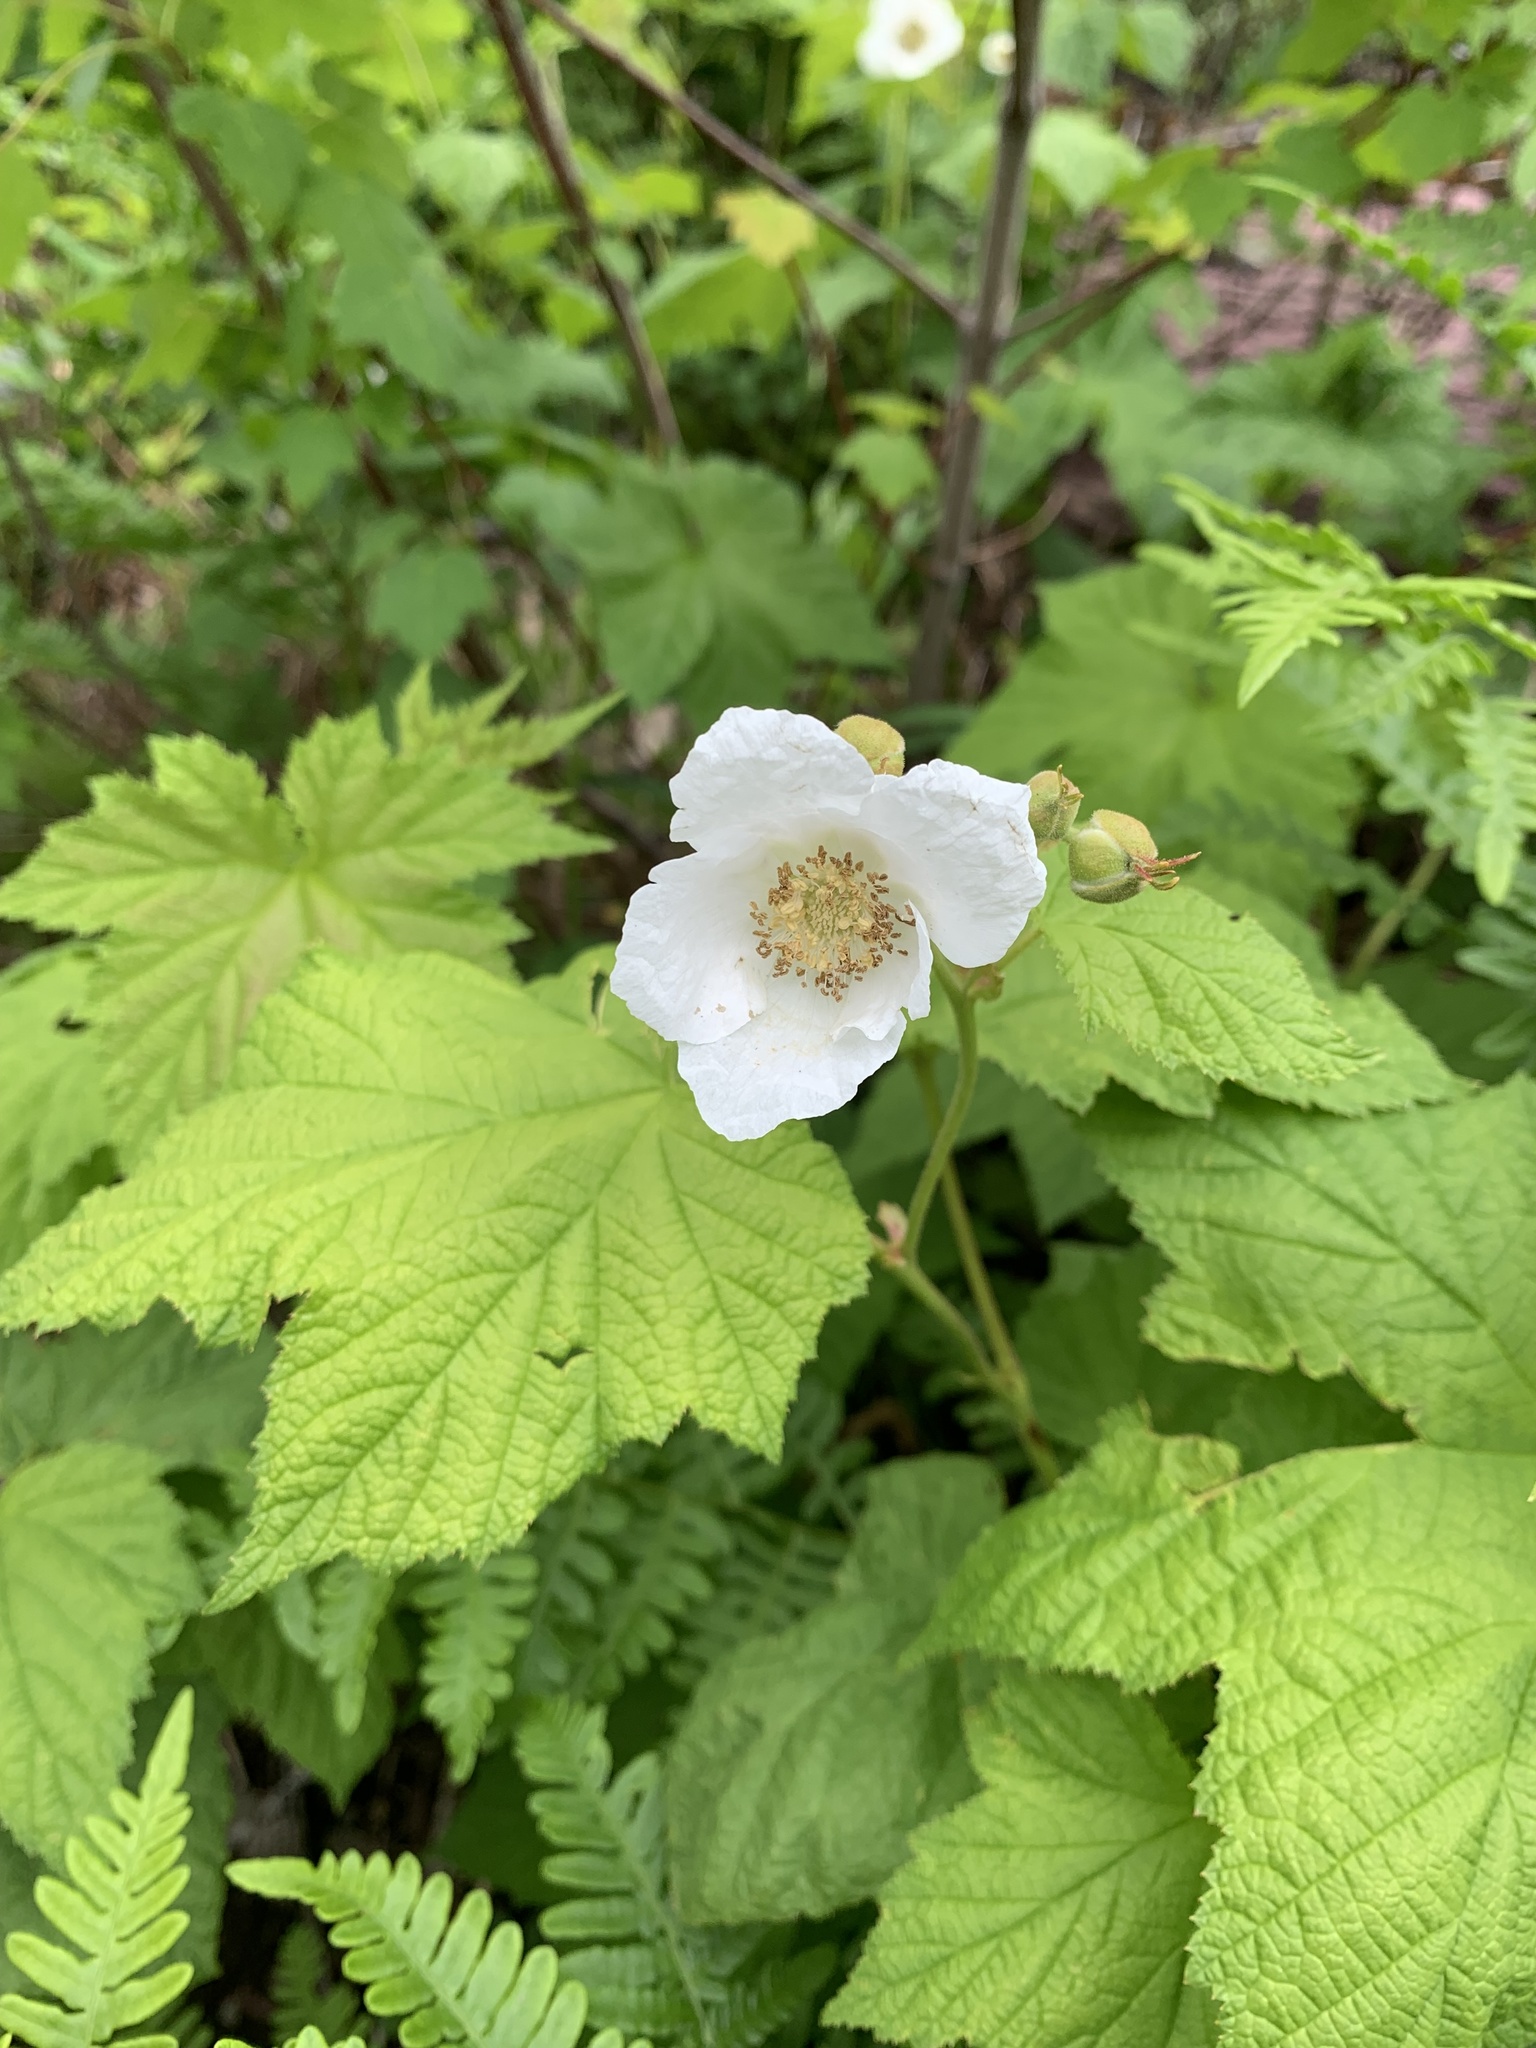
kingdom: Plantae
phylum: Tracheophyta
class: Magnoliopsida
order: Rosales
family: Rosaceae
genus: Rubus
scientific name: Rubus parviflorus
